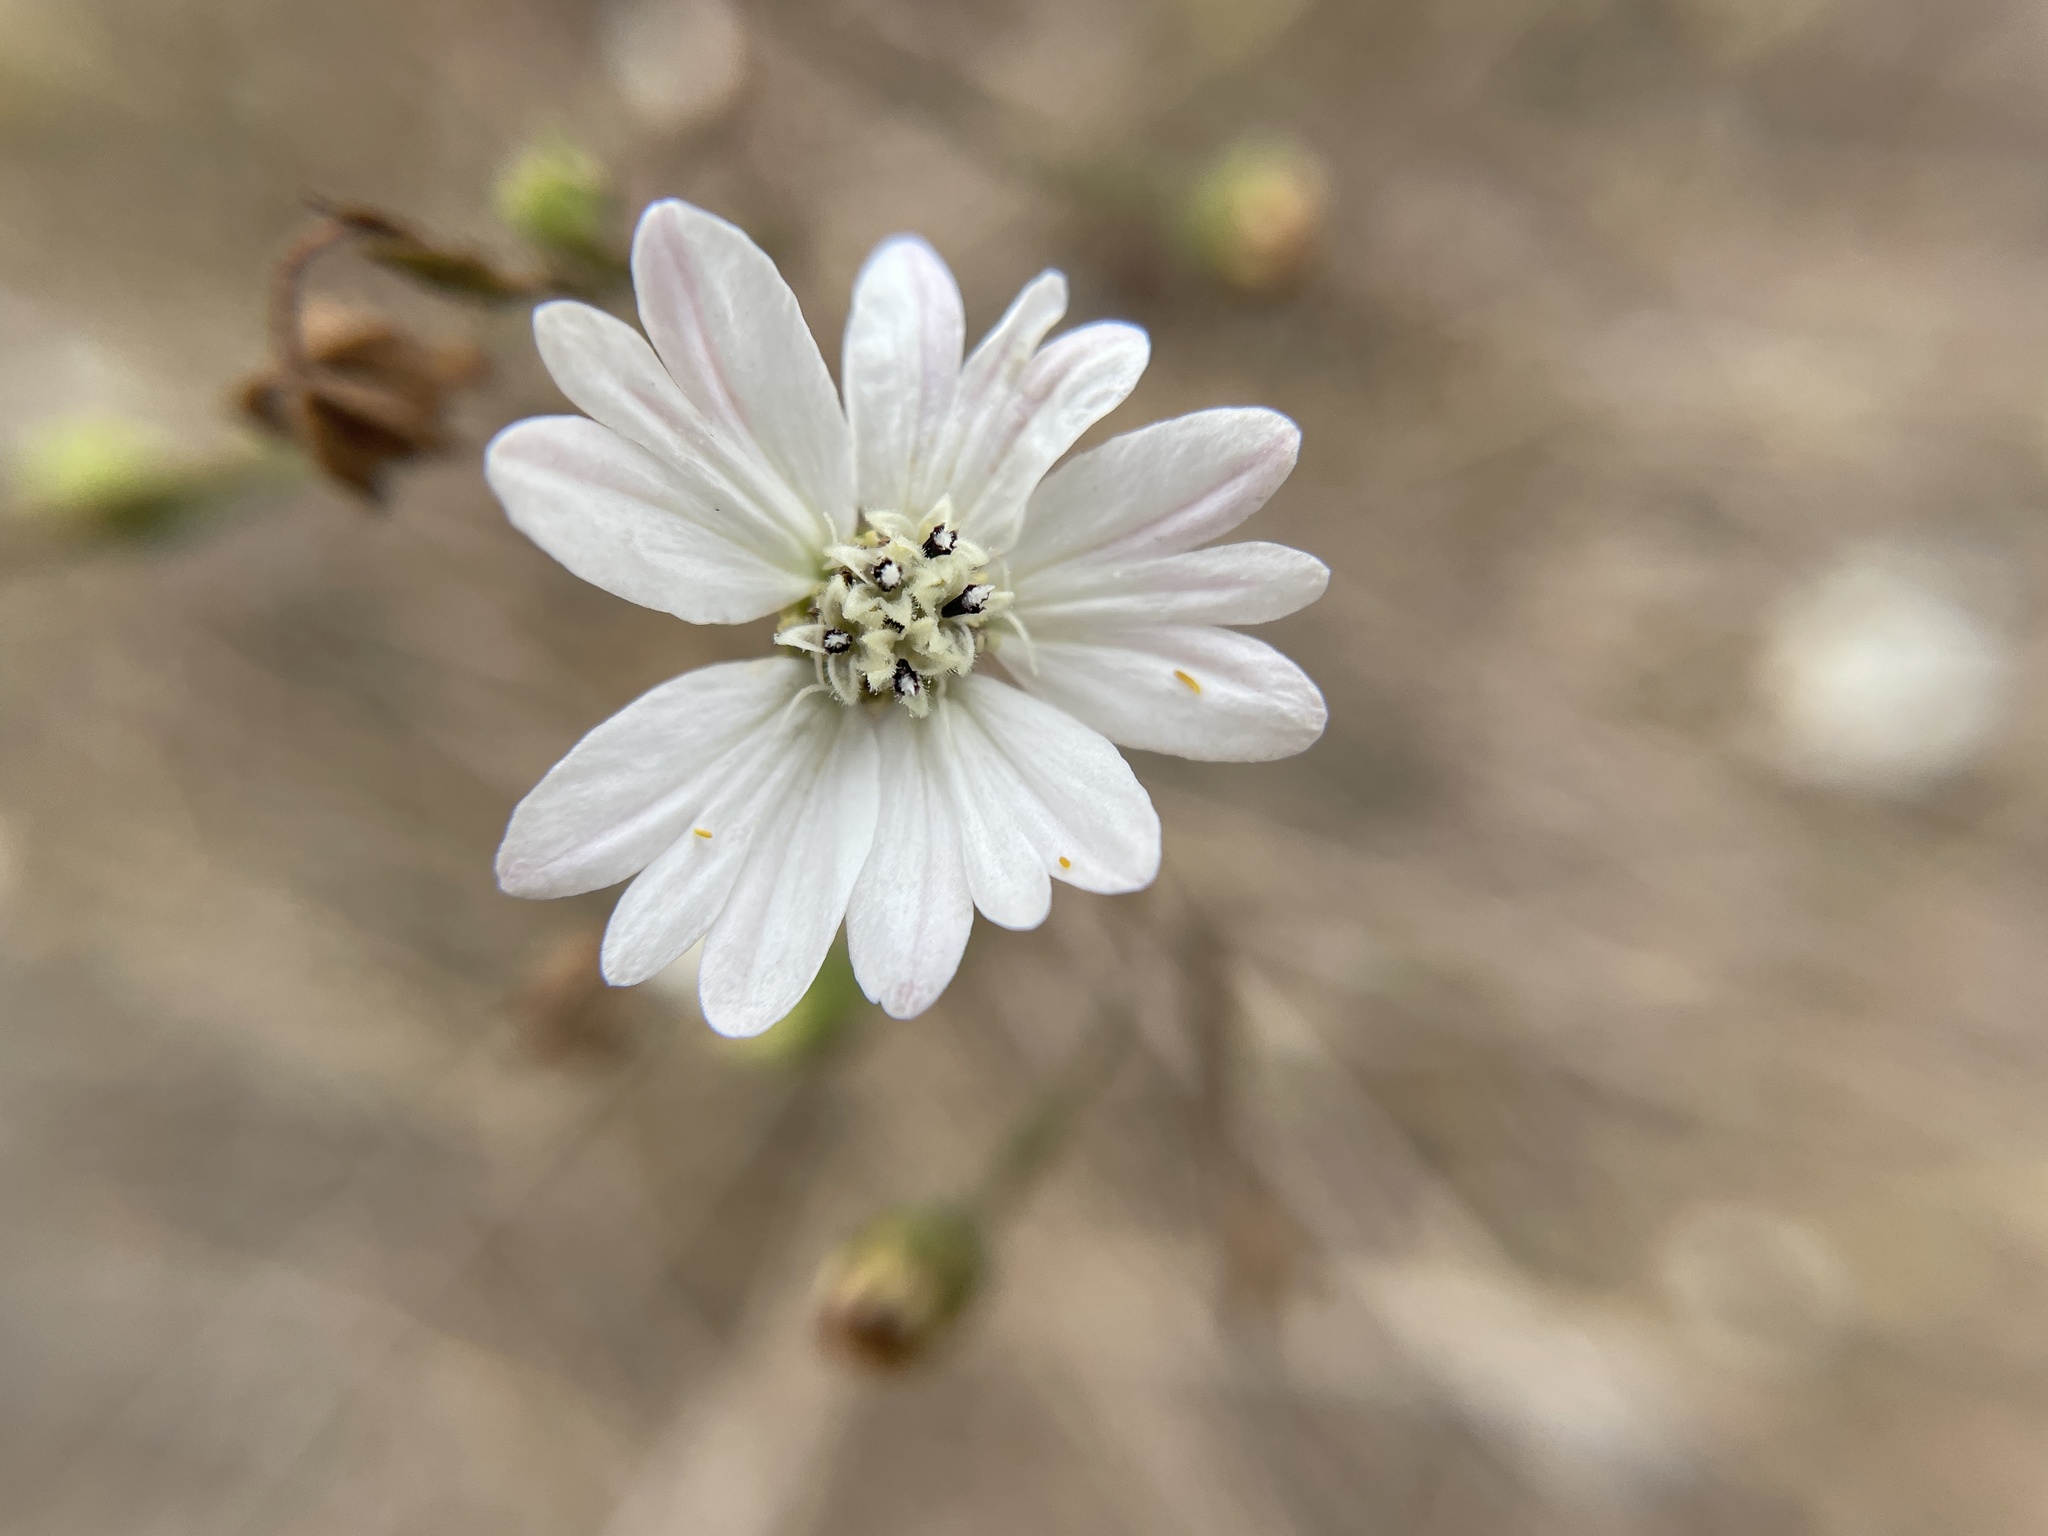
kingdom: Plantae
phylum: Tracheophyta
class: Magnoliopsida
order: Asterales
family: Asteraceae
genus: Hemizonia
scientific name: Hemizonia congesta
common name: Hayfield tarweed
